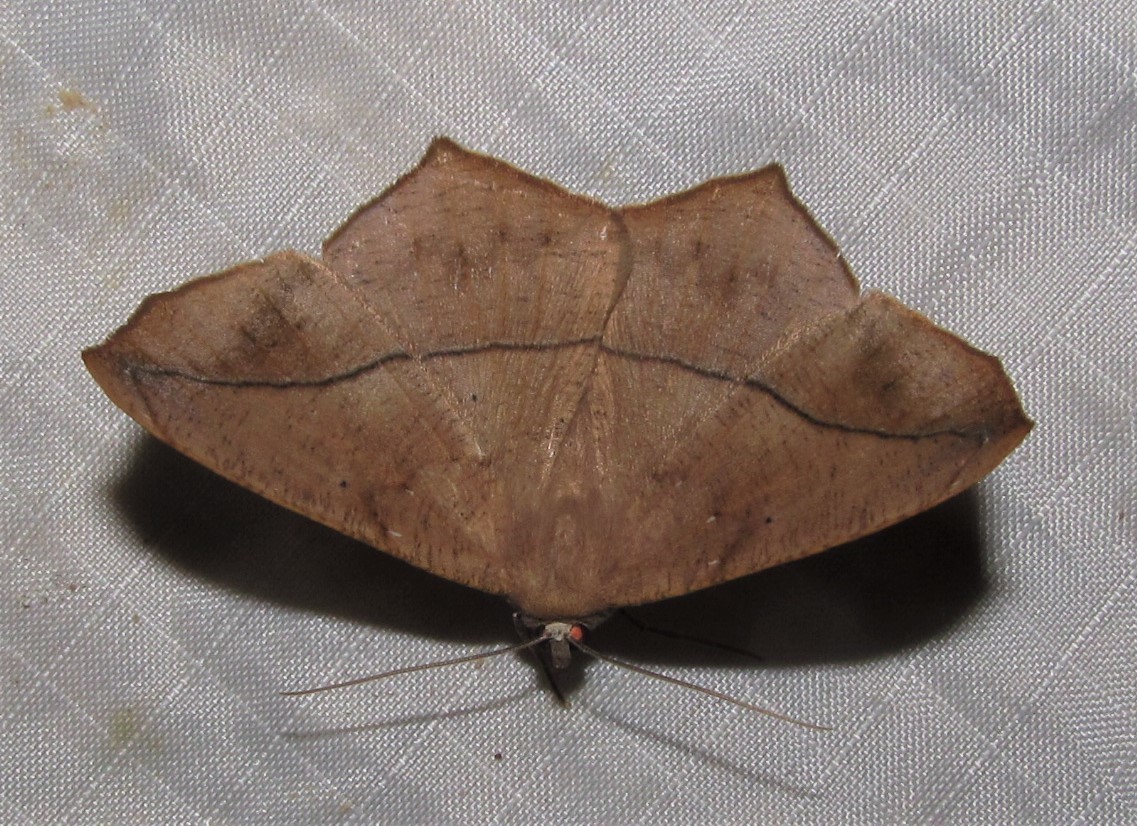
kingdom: Animalia
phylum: Arthropoda
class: Insecta
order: Lepidoptera
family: Geometridae
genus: Prochoerodes
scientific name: Prochoerodes lineola
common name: Large maple spanworm
